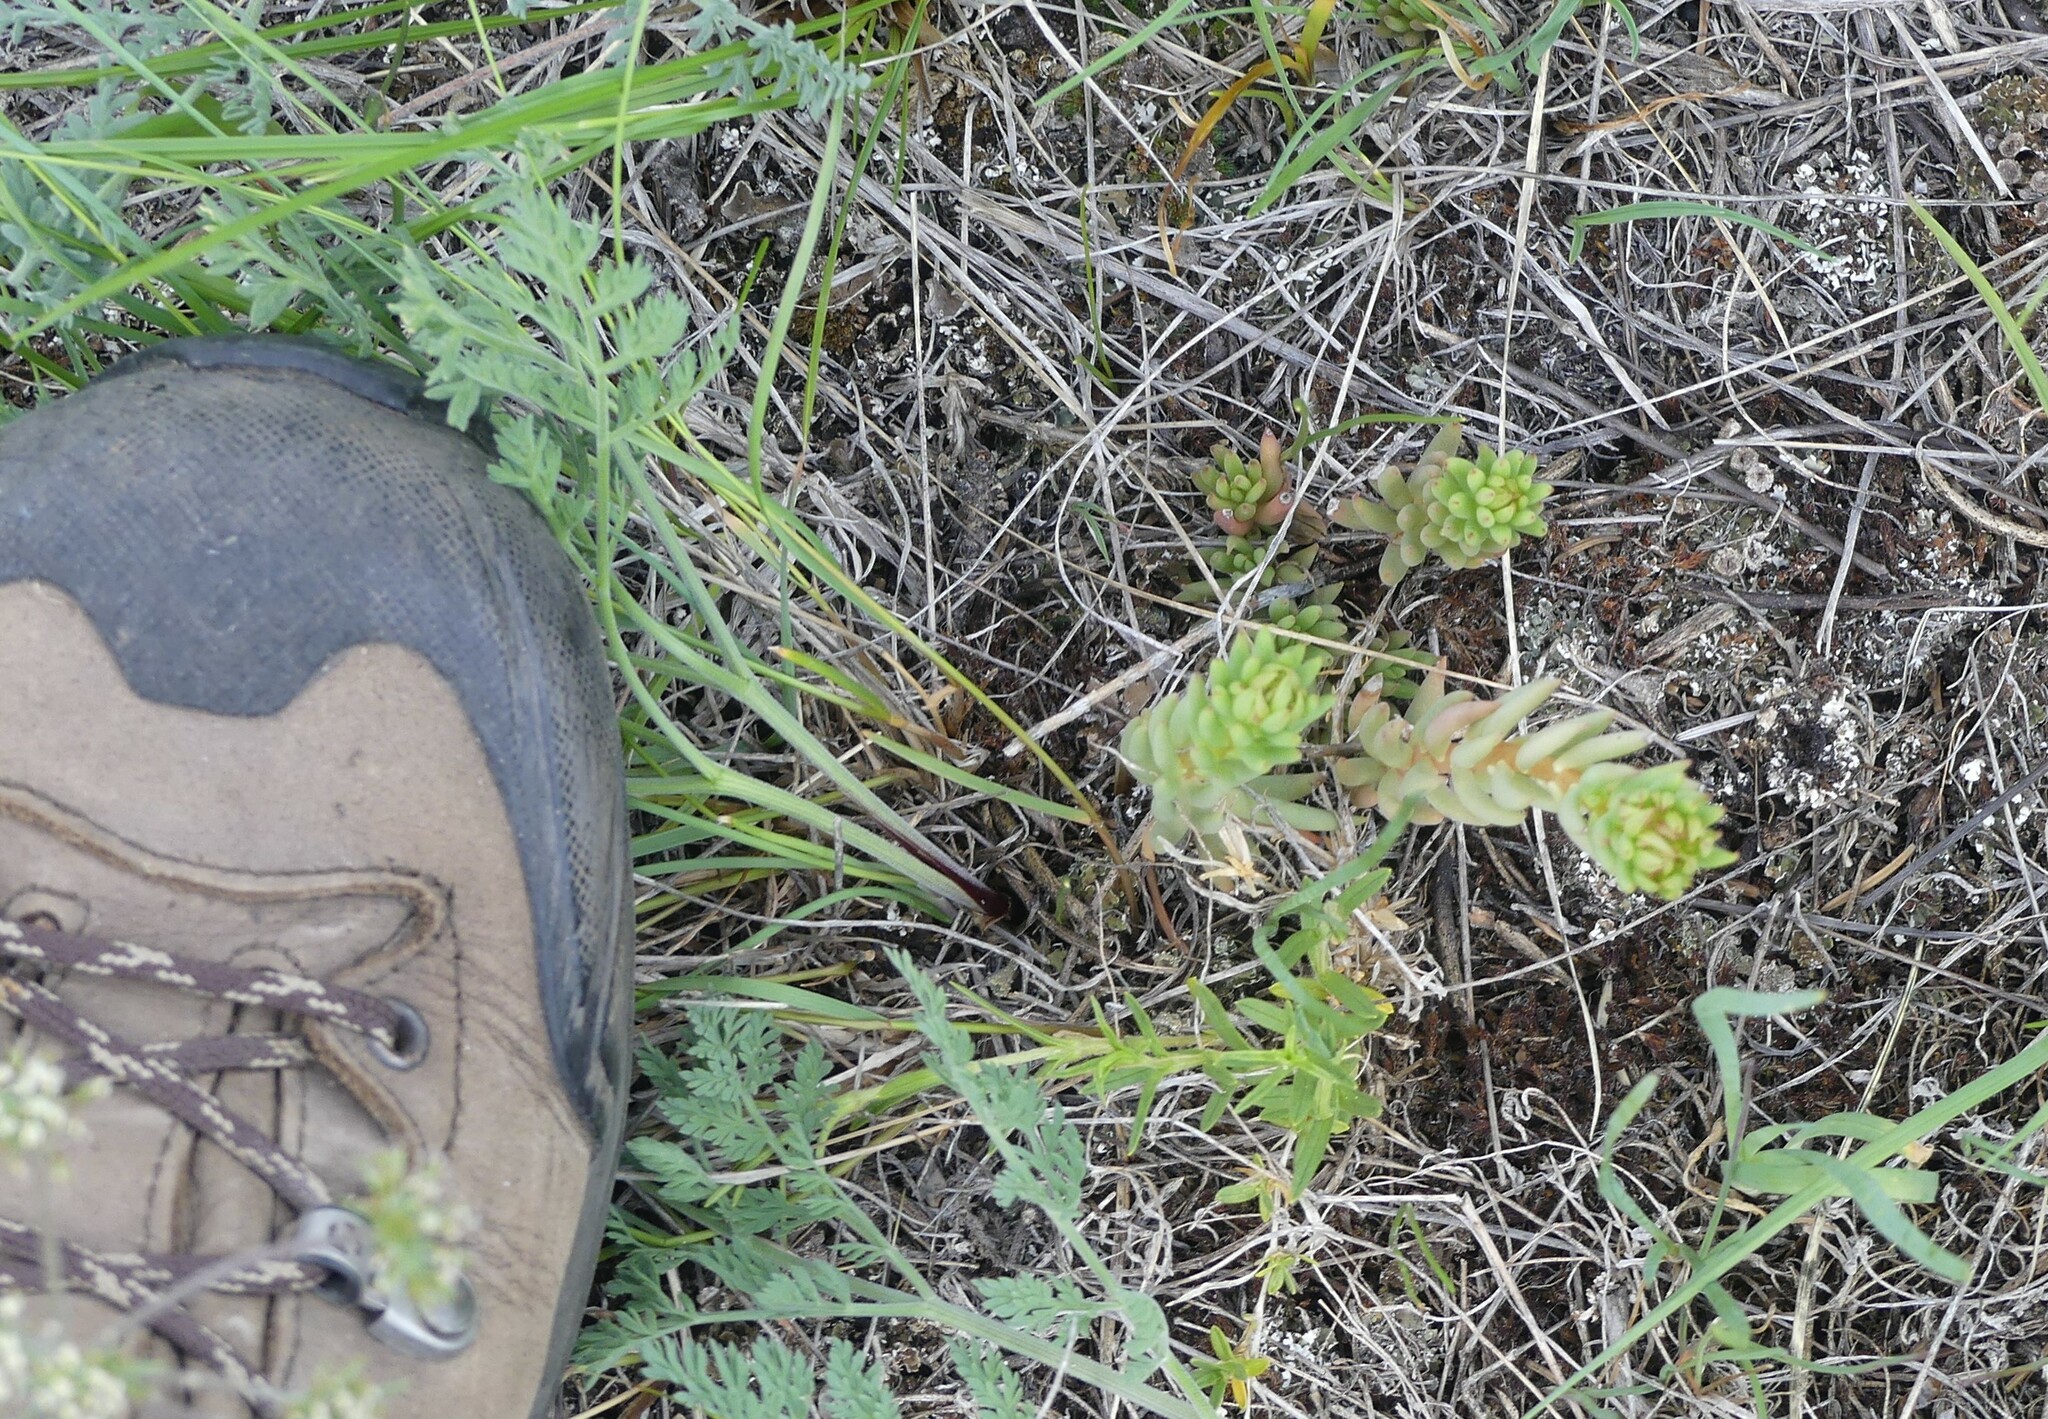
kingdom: Plantae
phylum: Tracheophyta
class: Magnoliopsida
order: Saxifragales
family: Crassulaceae
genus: Sedum
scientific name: Sedum lanceolatum
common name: Common stonecrop
